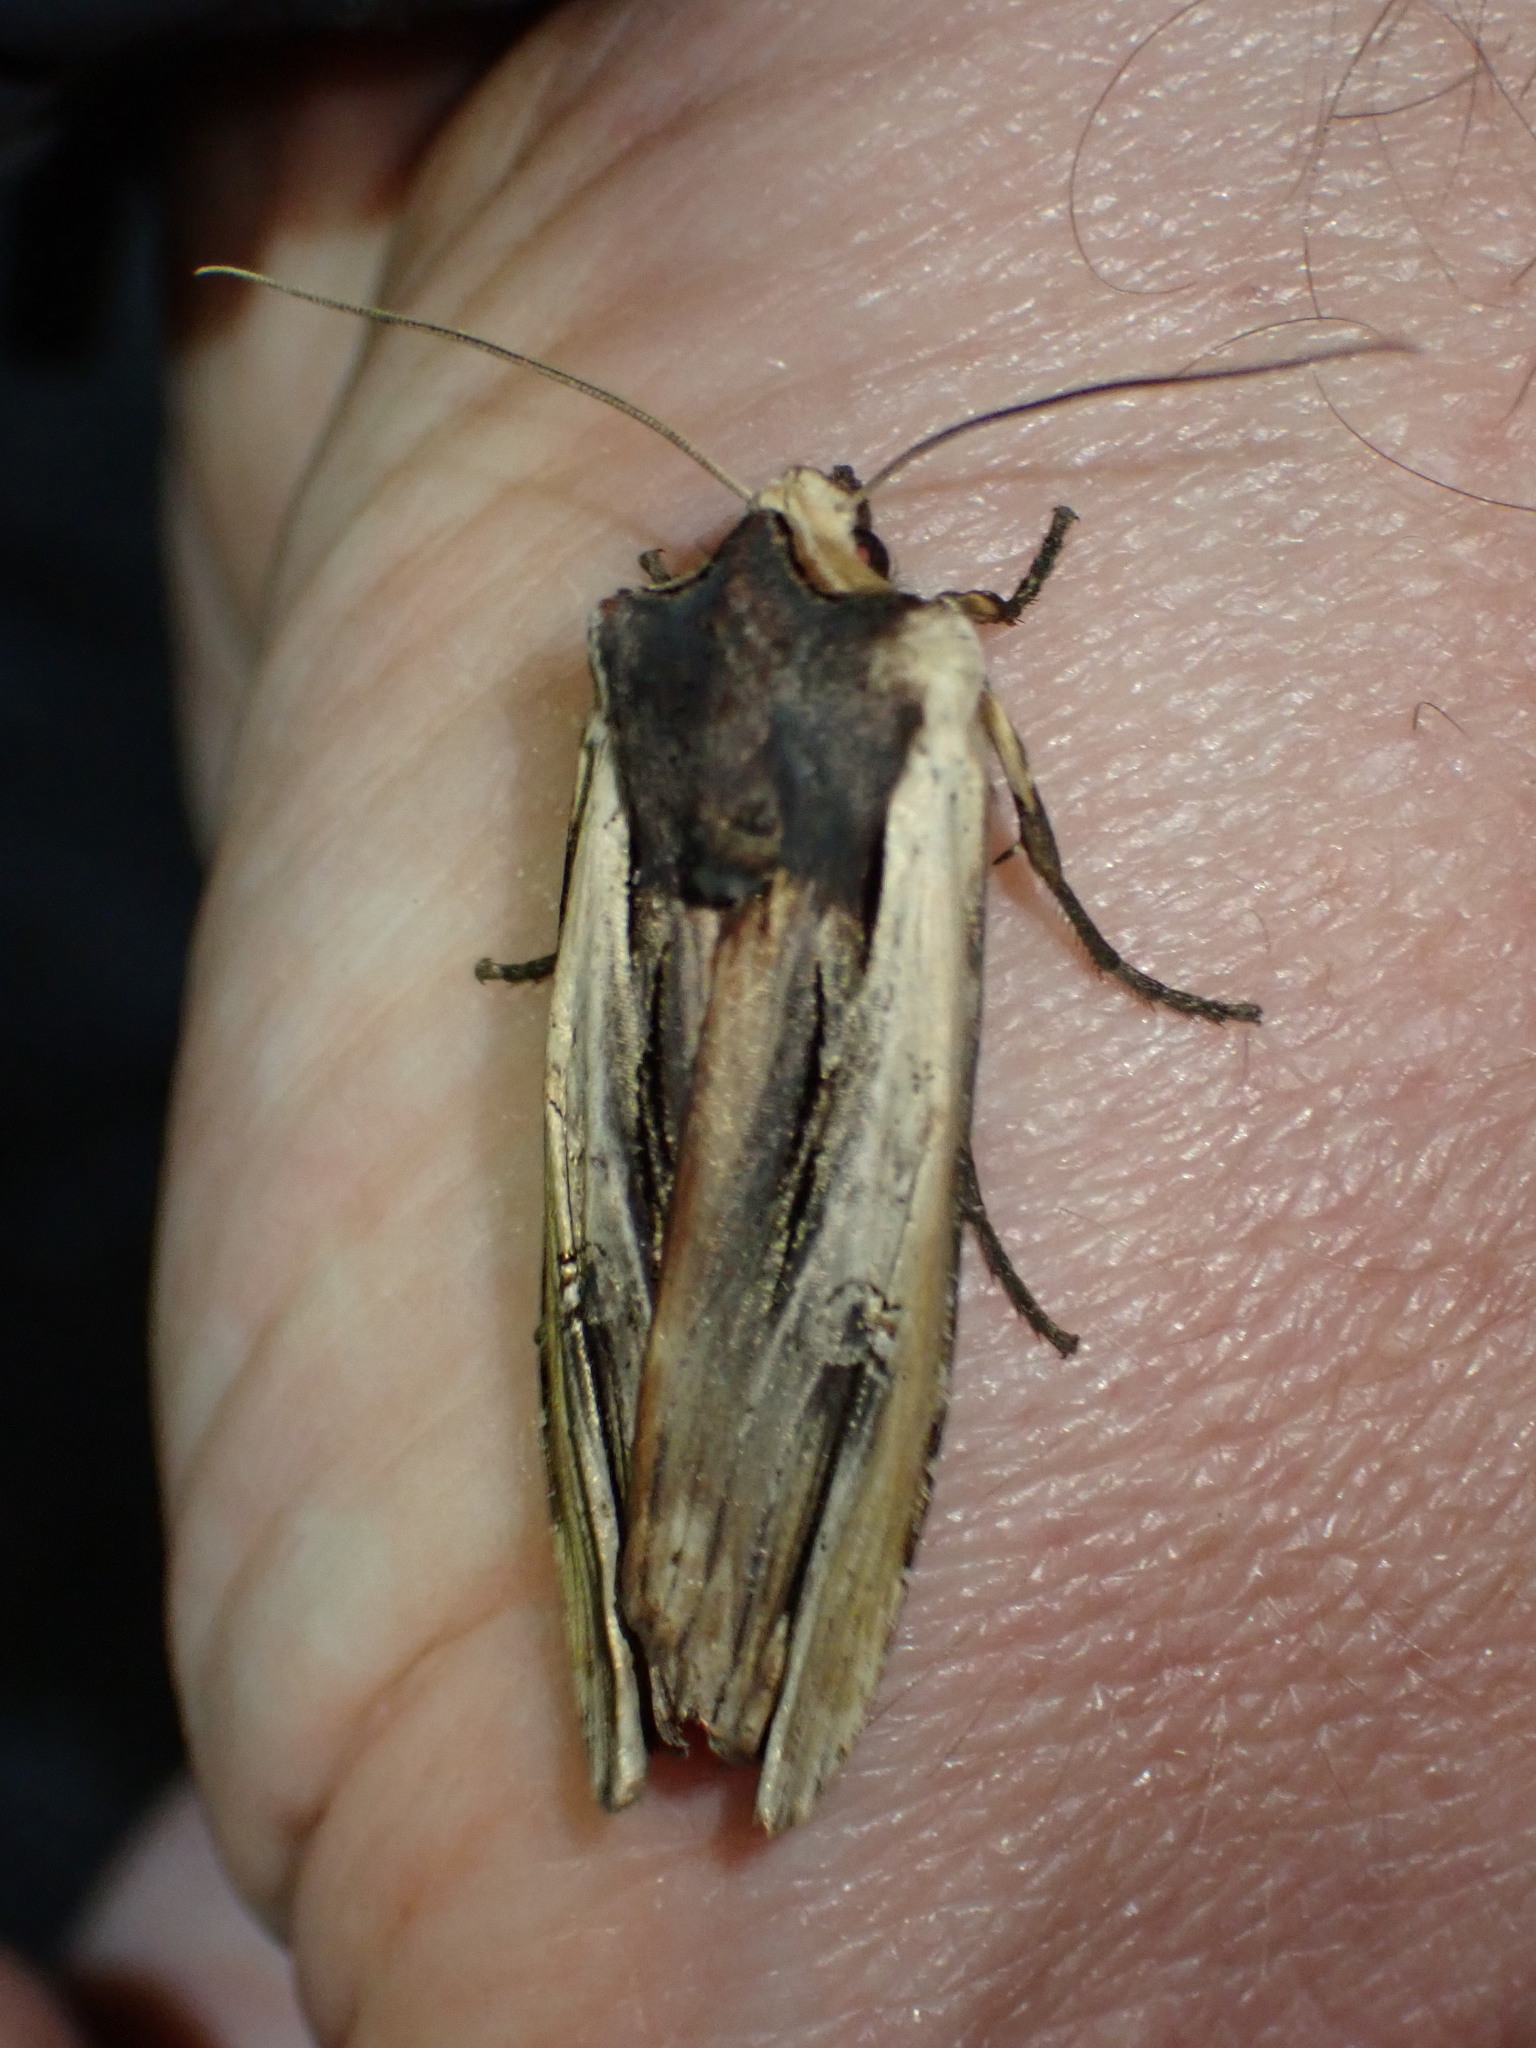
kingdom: Animalia
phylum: Arthropoda
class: Insecta
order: Lepidoptera
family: Noctuidae
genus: Xylena
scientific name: Xylena nupera
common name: American swordgrass moth
